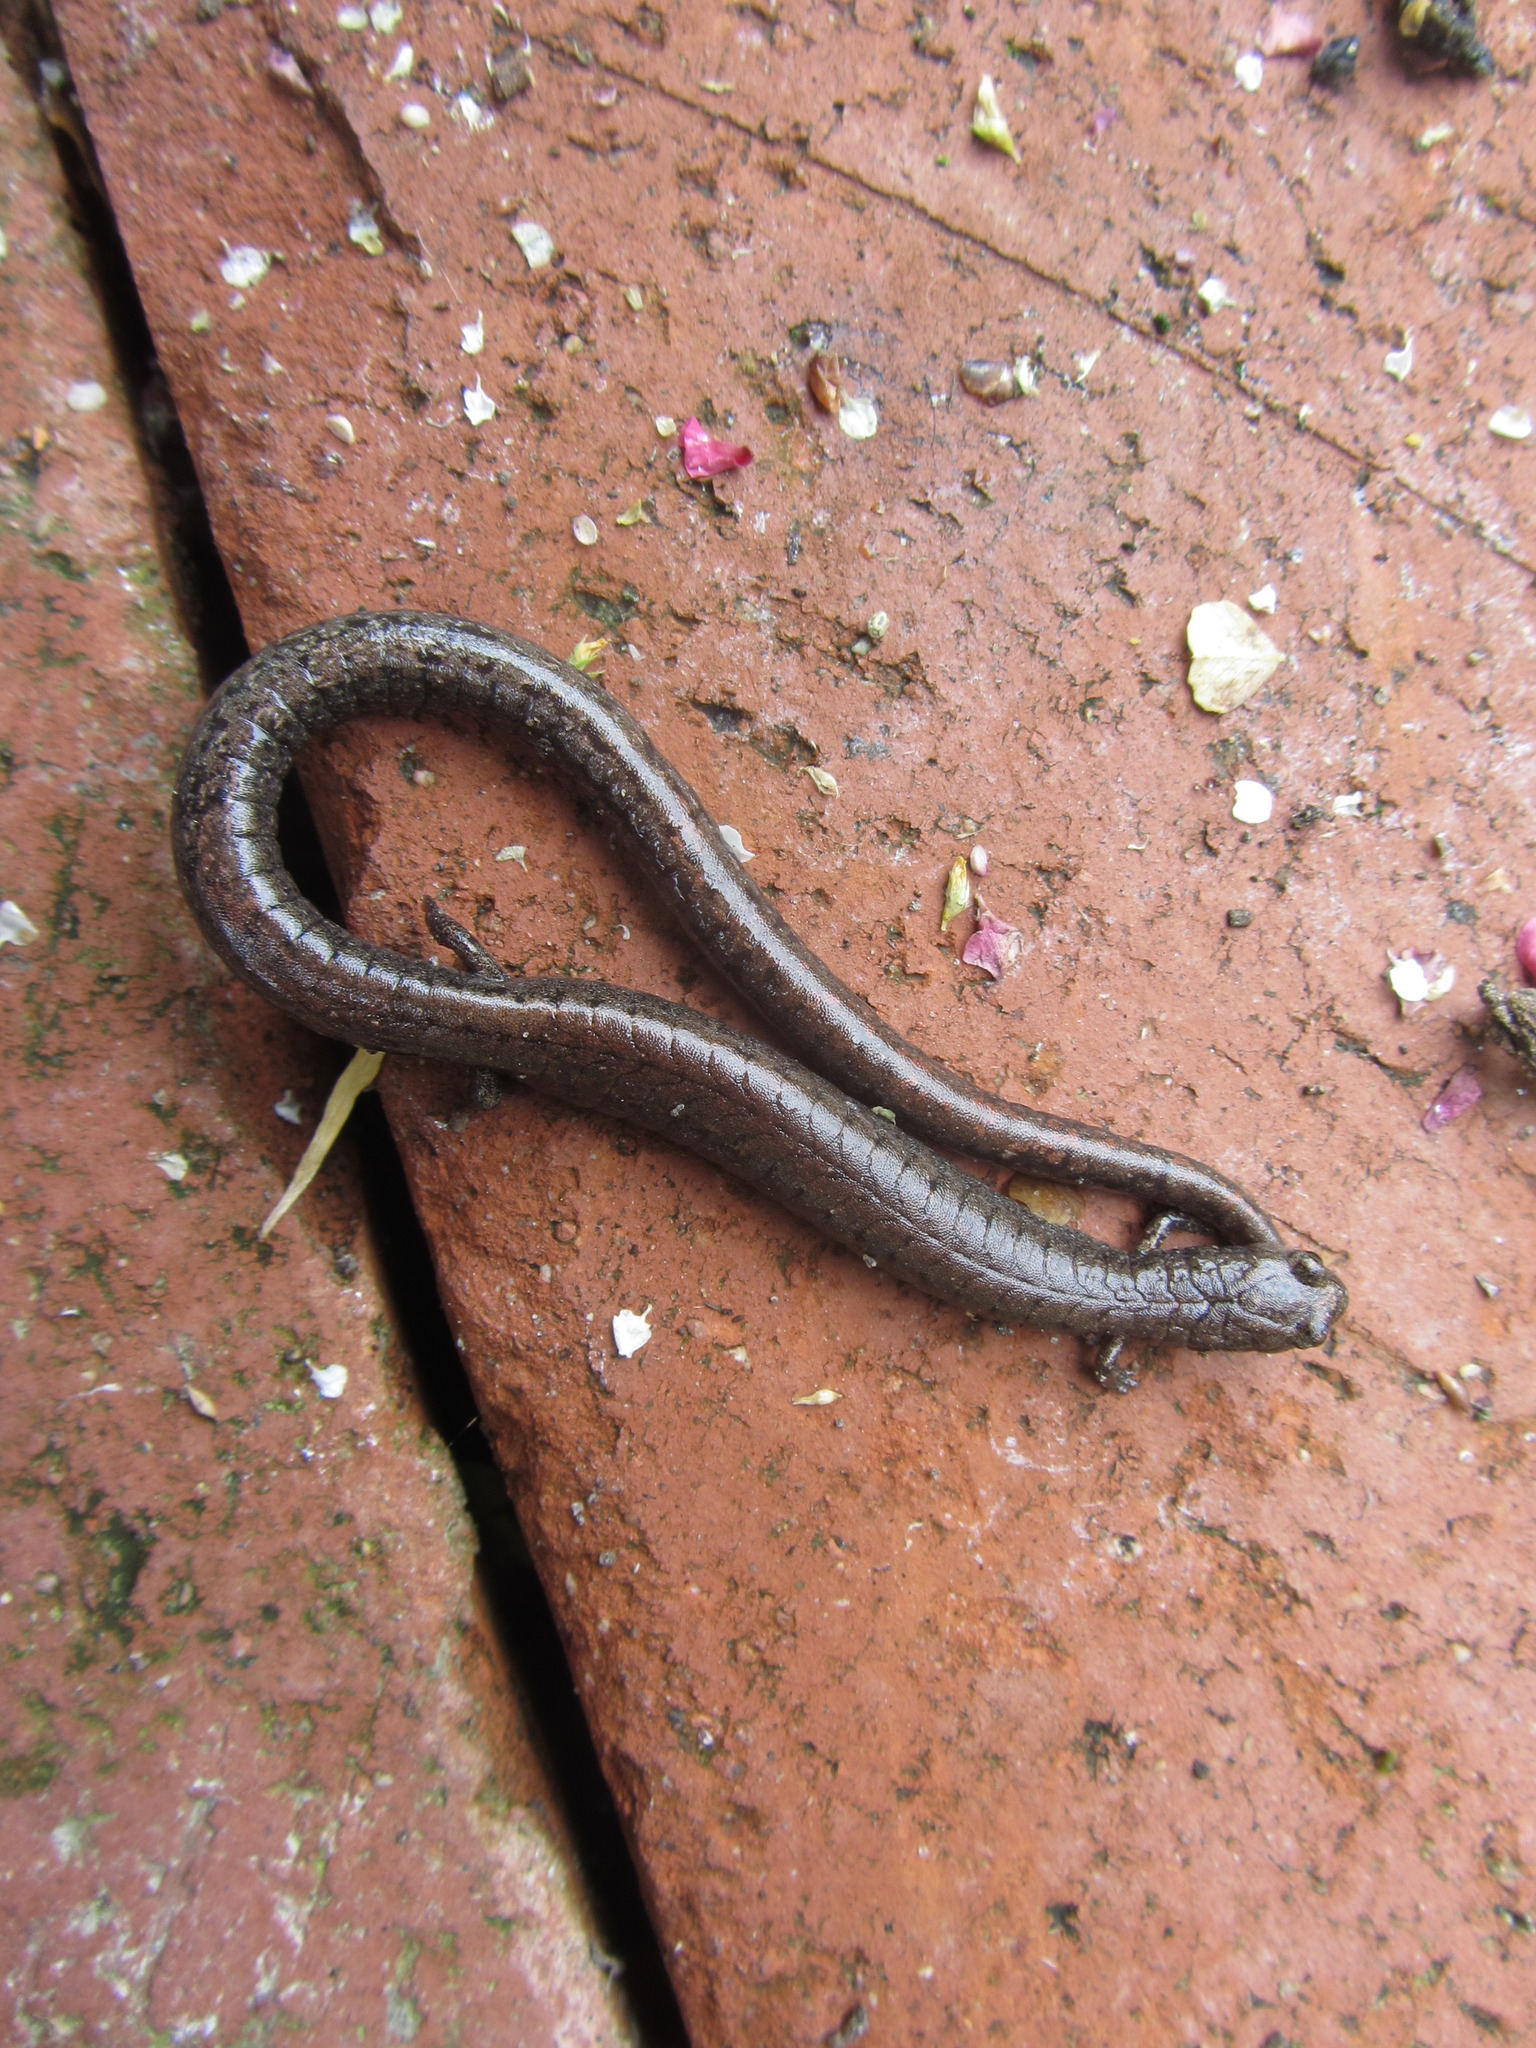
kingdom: Animalia
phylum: Chordata
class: Amphibia
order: Caudata
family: Plethodontidae
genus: Batrachoseps
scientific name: Batrachoseps attenuatus
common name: California slender salamander
